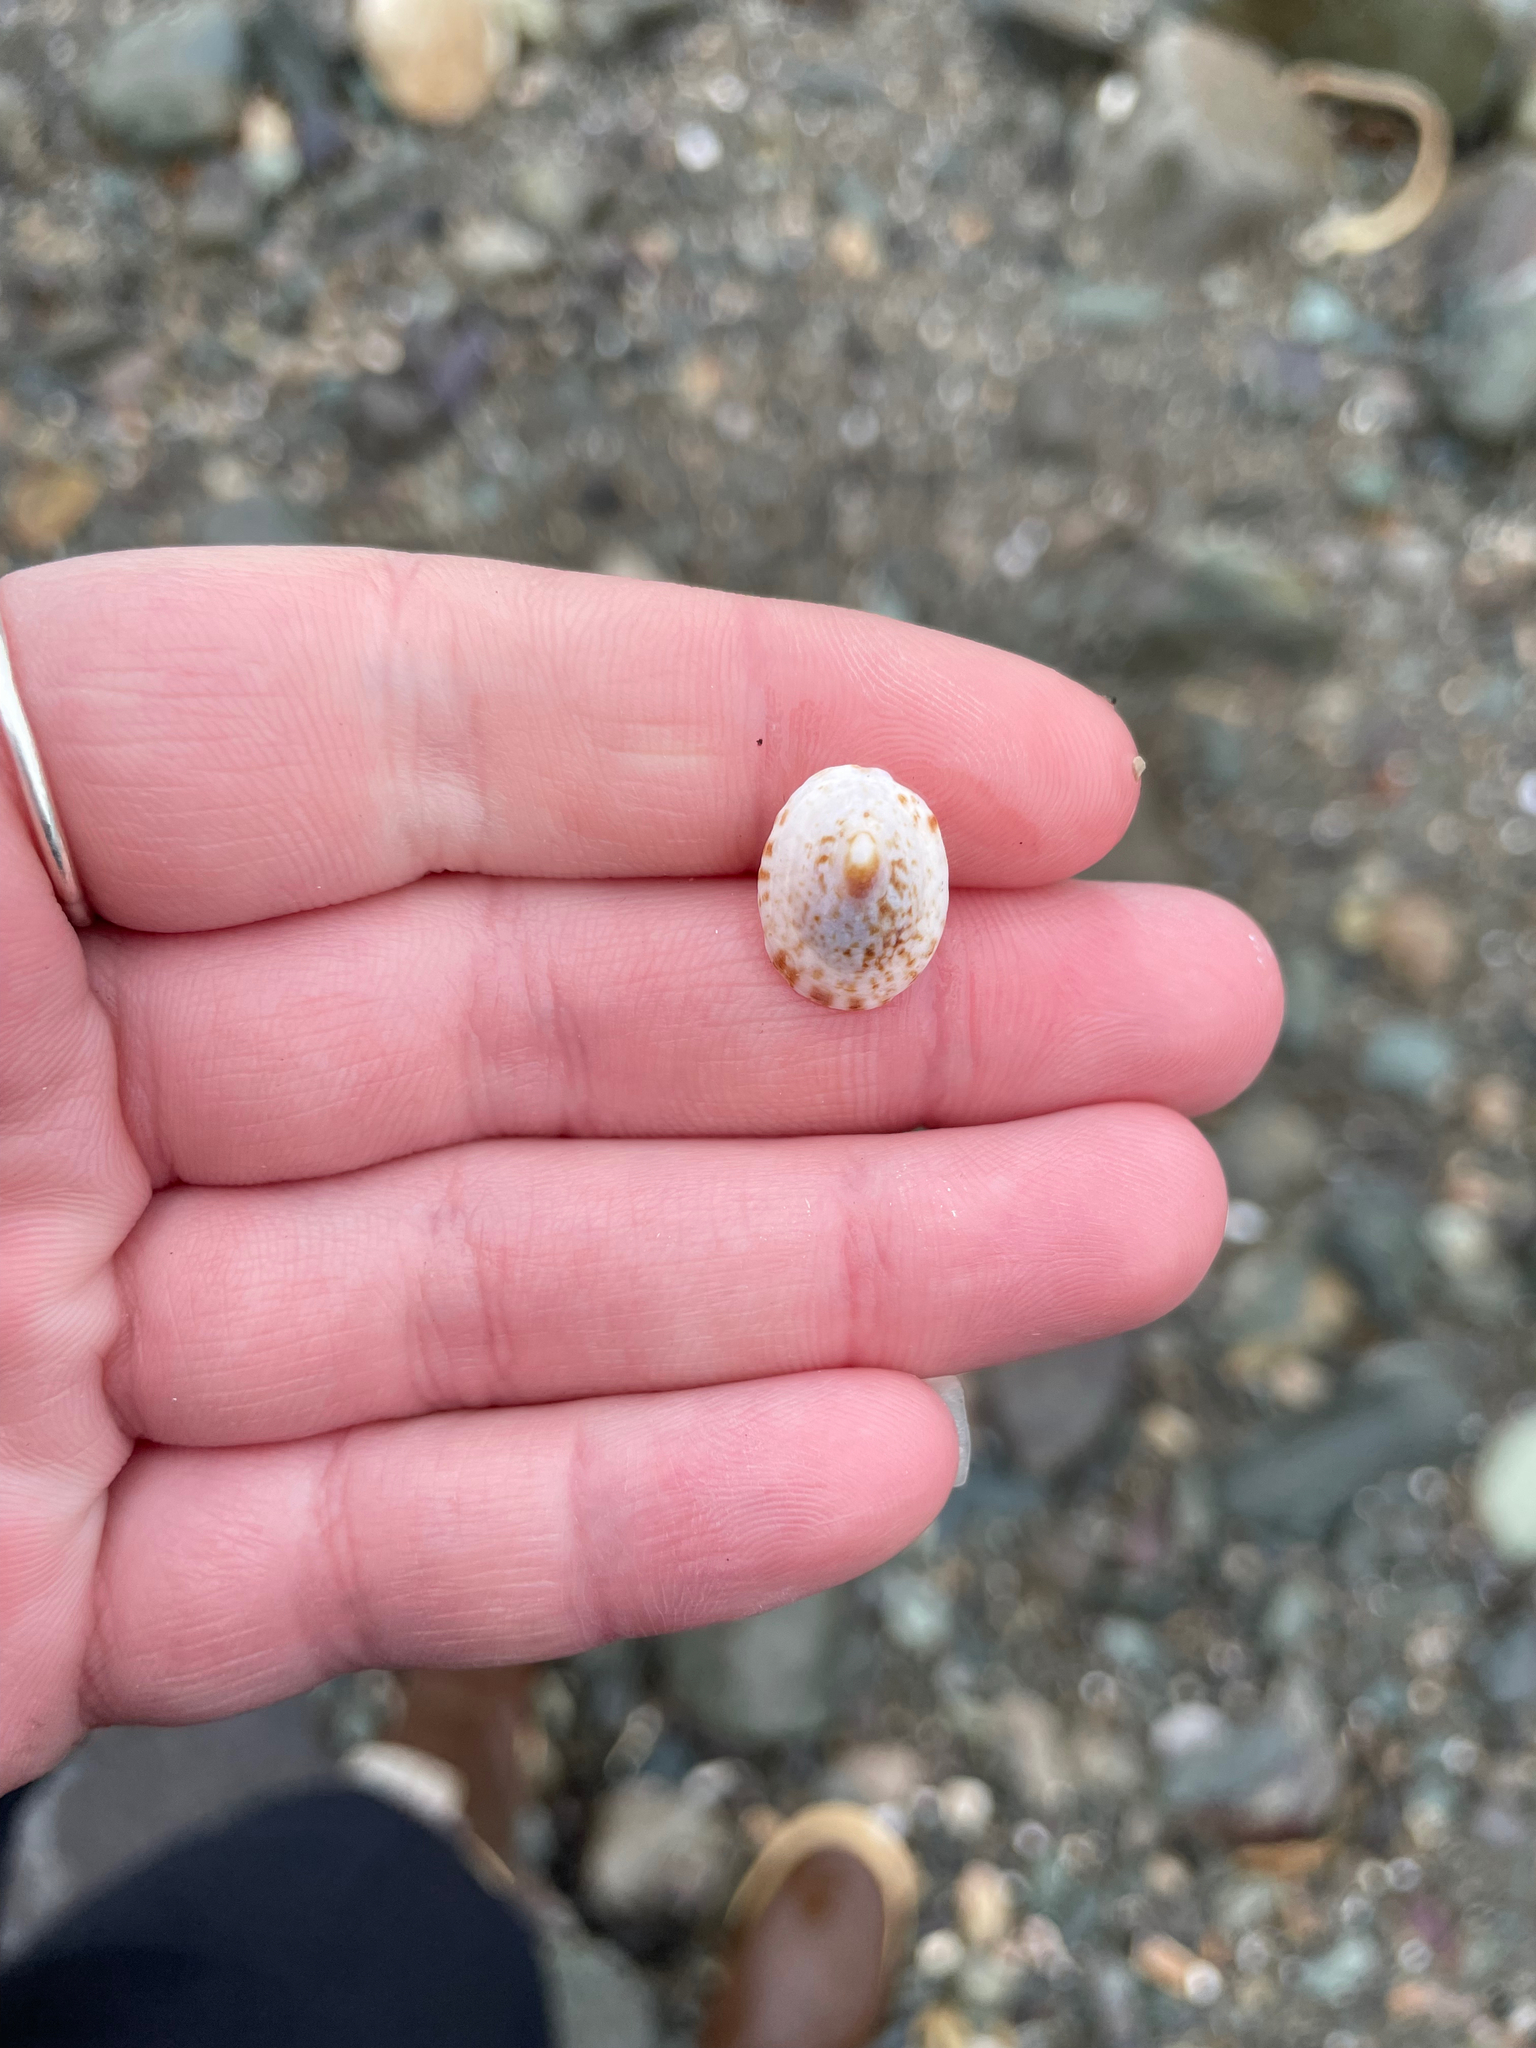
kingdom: Animalia
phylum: Mollusca
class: Gastropoda
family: Lottiidae
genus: Testudinalia
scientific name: Testudinalia testudinalis
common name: Common tortoiseshell limpet
